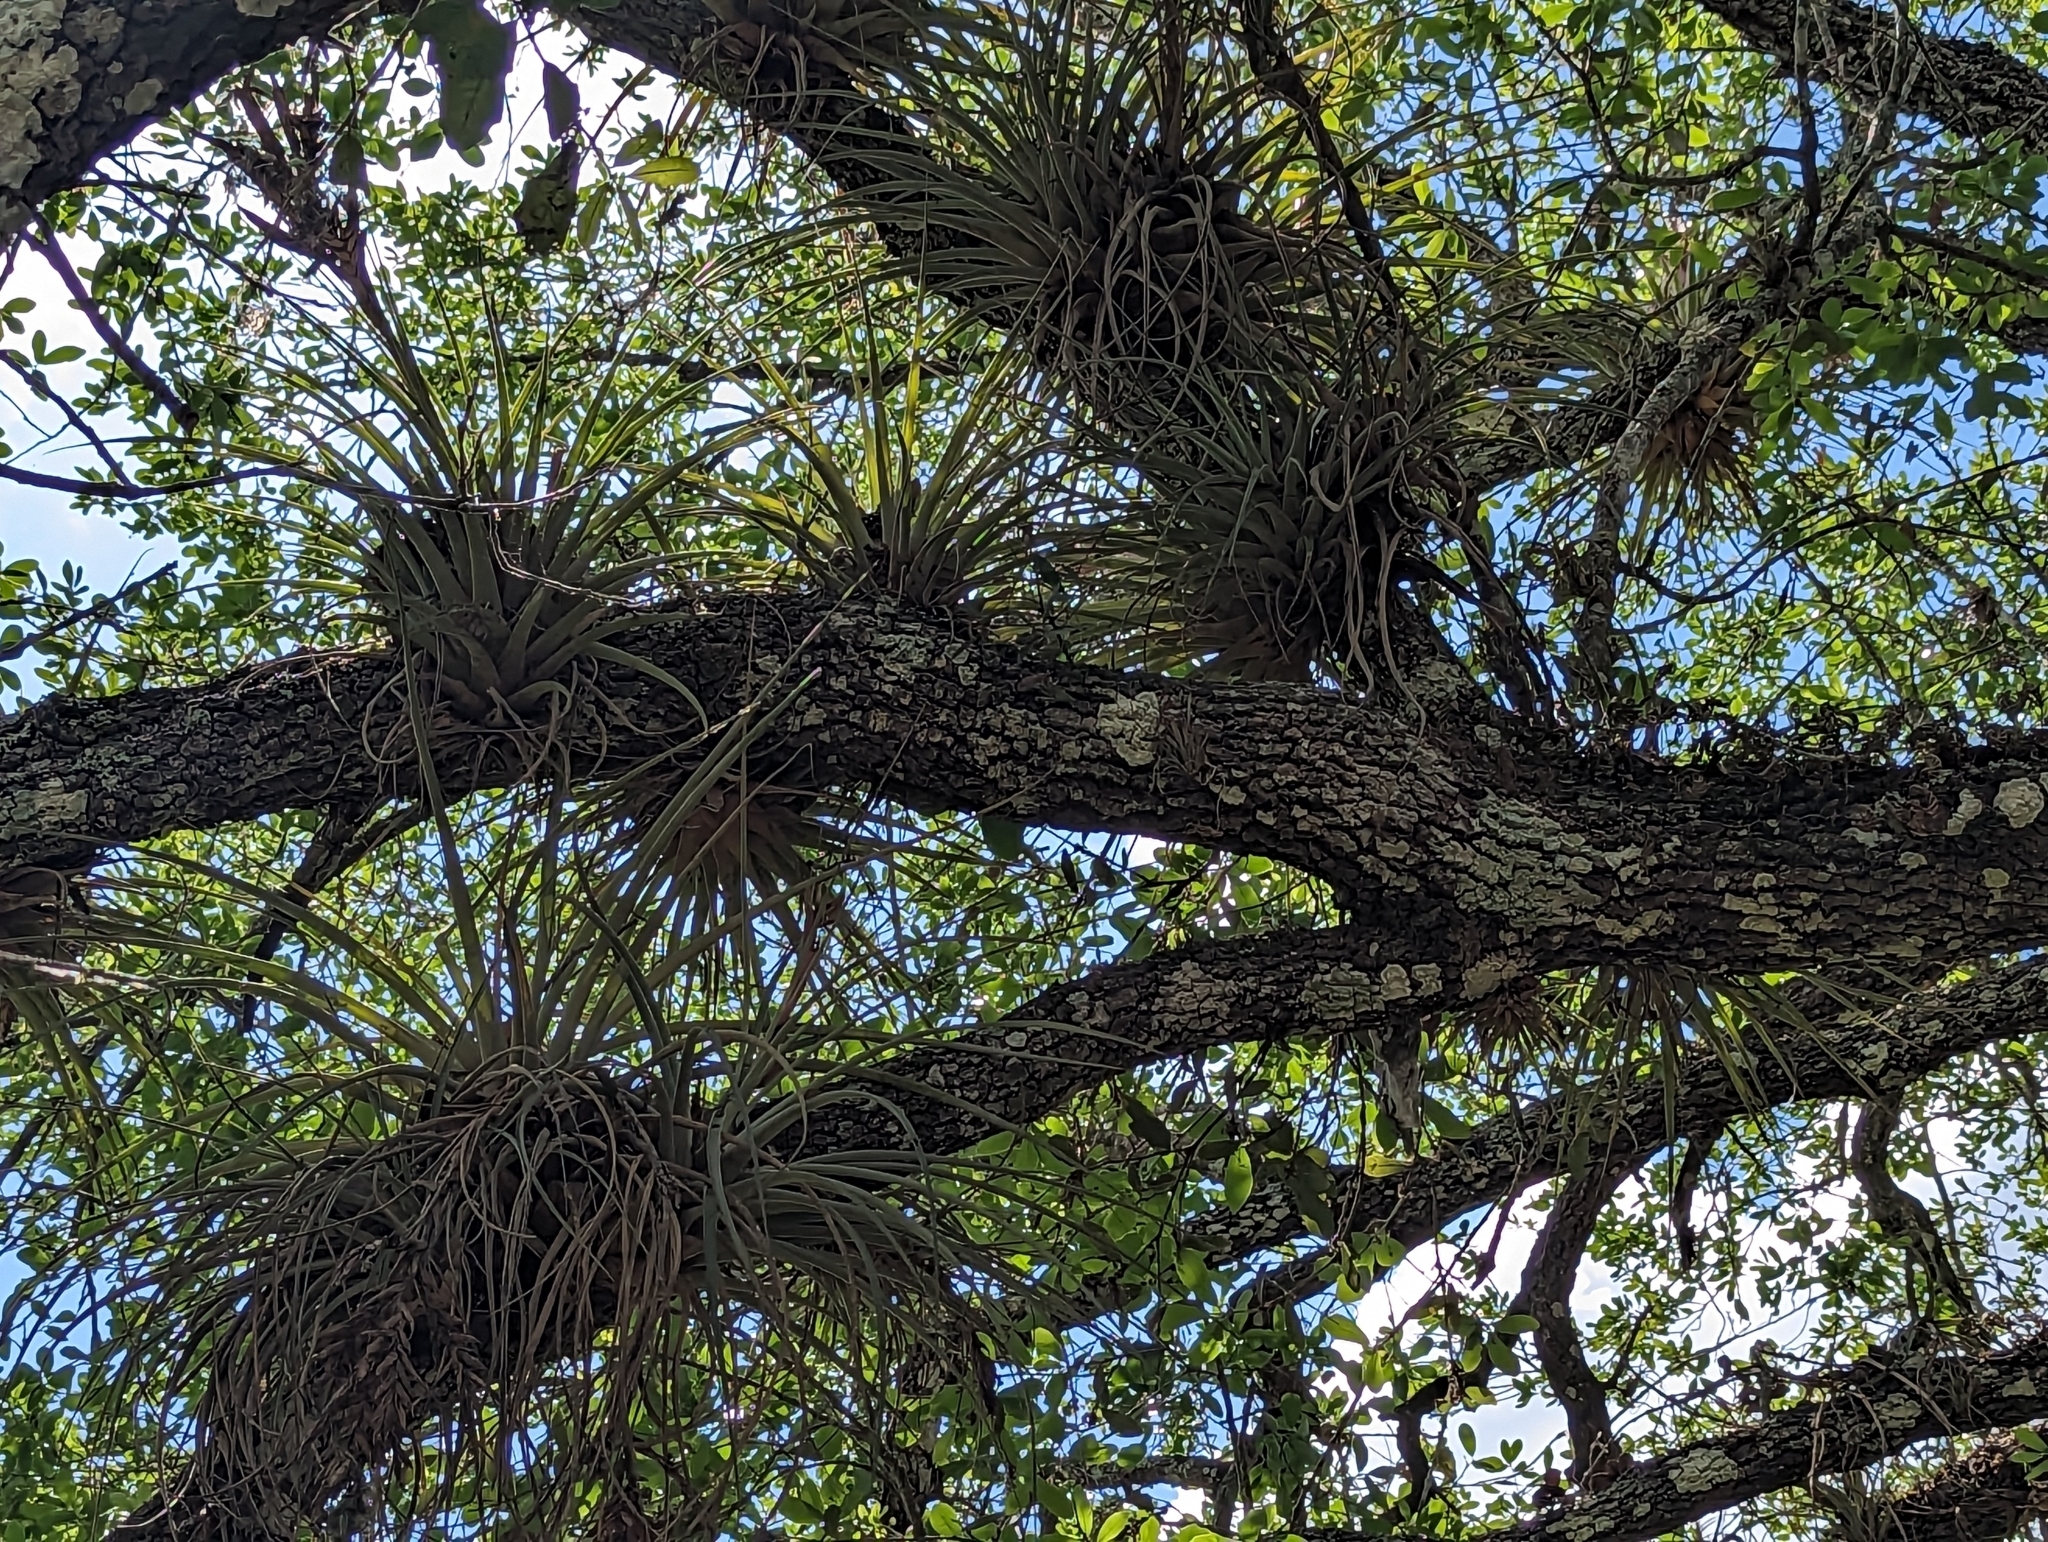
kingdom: Plantae
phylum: Tracheophyta
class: Liliopsida
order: Poales
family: Bromeliaceae
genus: Tillandsia
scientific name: Tillandsia fasciculata
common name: Giant airplant
